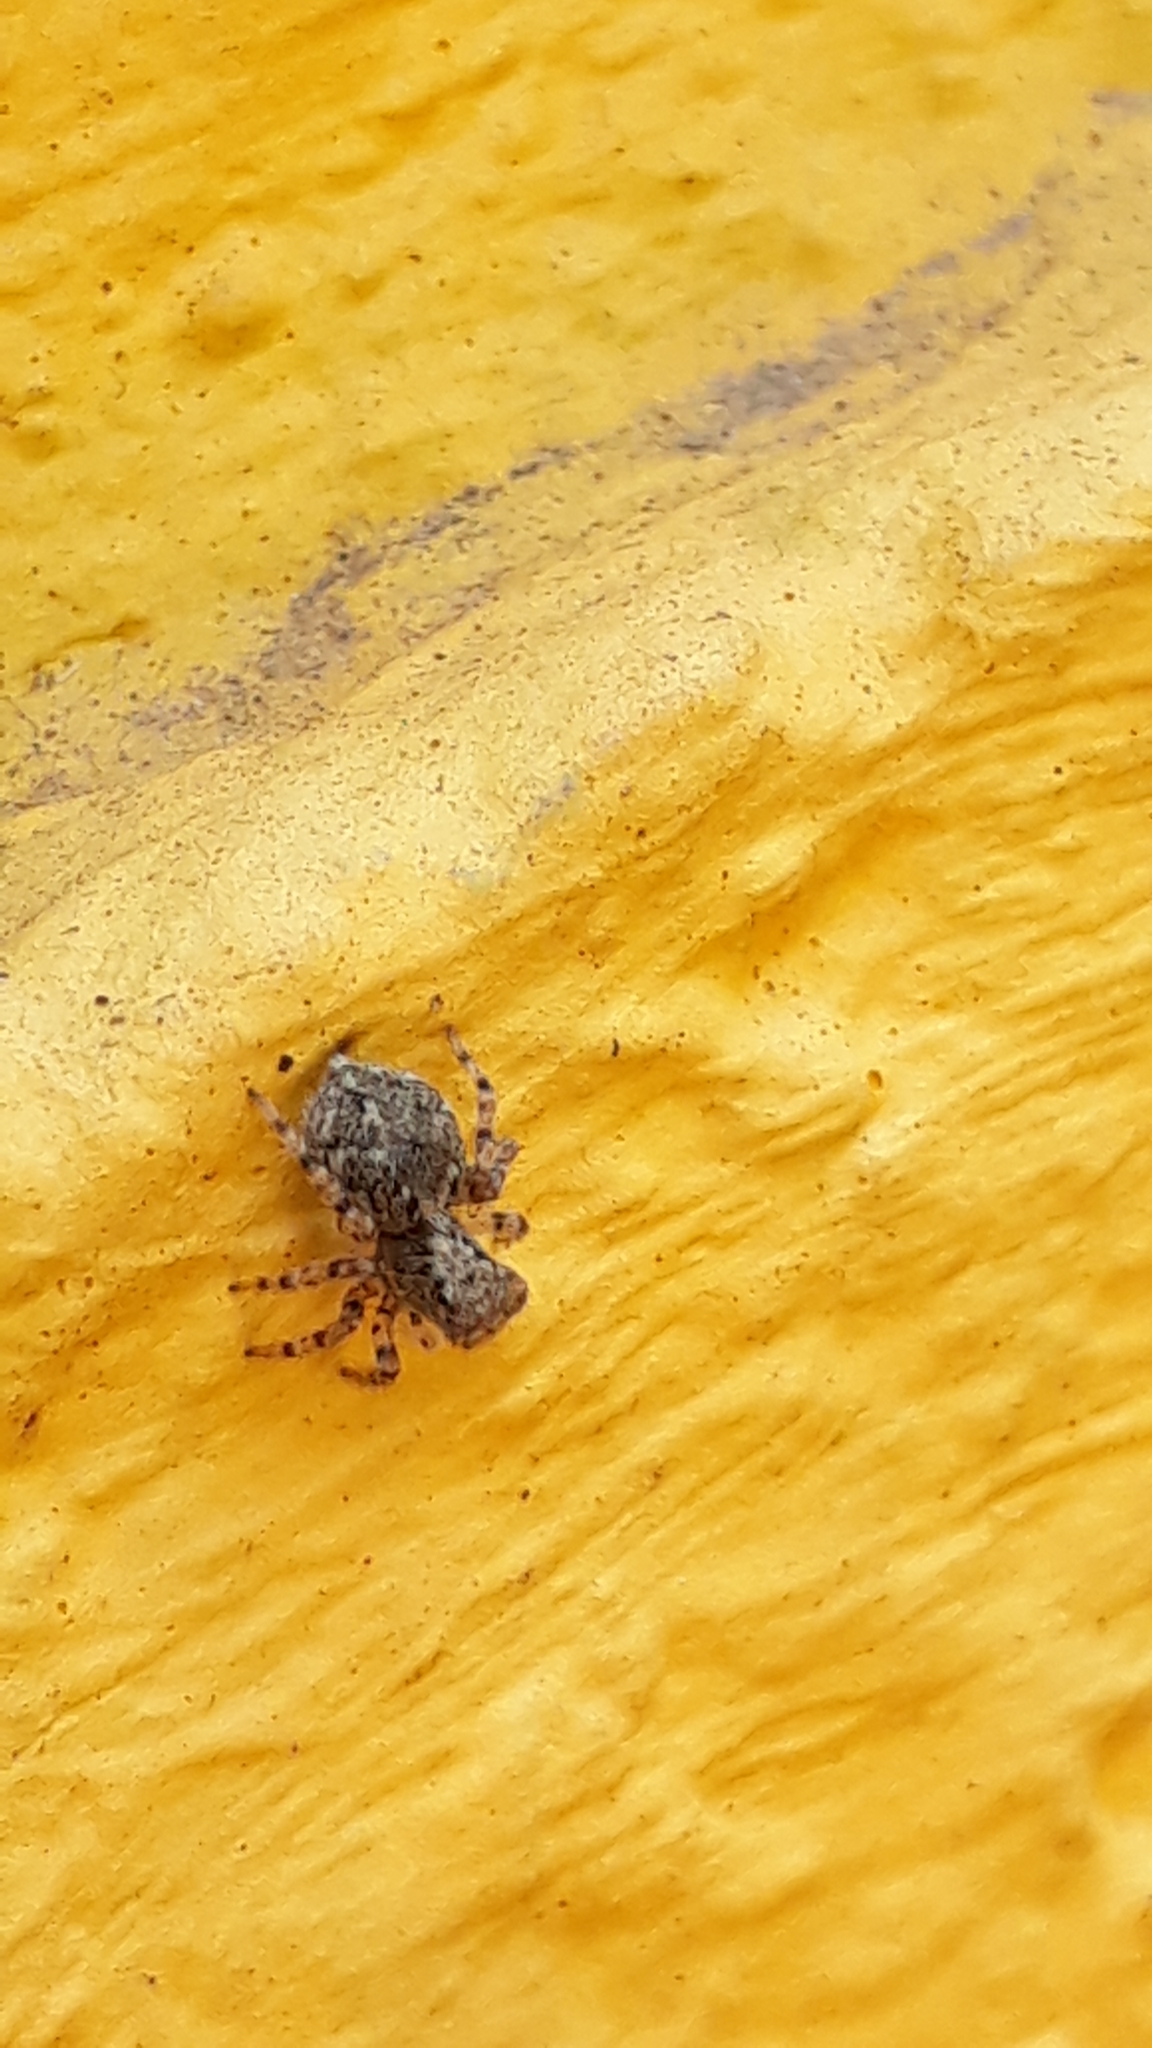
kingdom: Animalia
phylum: Arthropoda
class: Arachnida
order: Araneae
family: Salticidae
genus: Marma
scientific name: Marma nigritarsis
